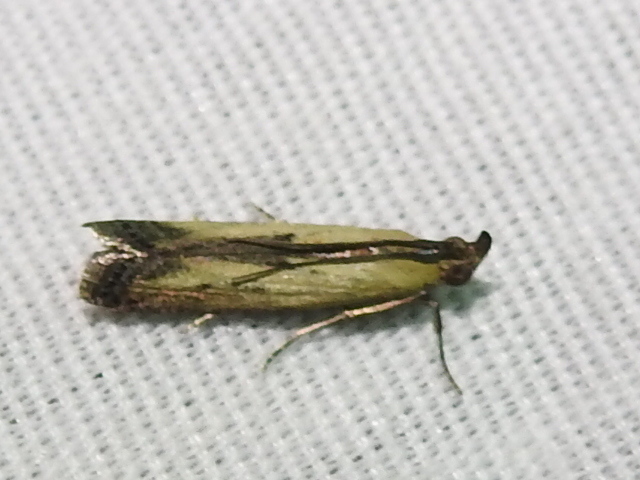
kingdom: Animalia
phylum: Arthropoda
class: Insecta
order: Lepidoptera
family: Pyralidae
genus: Elasmopalpus
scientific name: Elasmopalpus lignosella
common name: Lesser cornstalk borer
